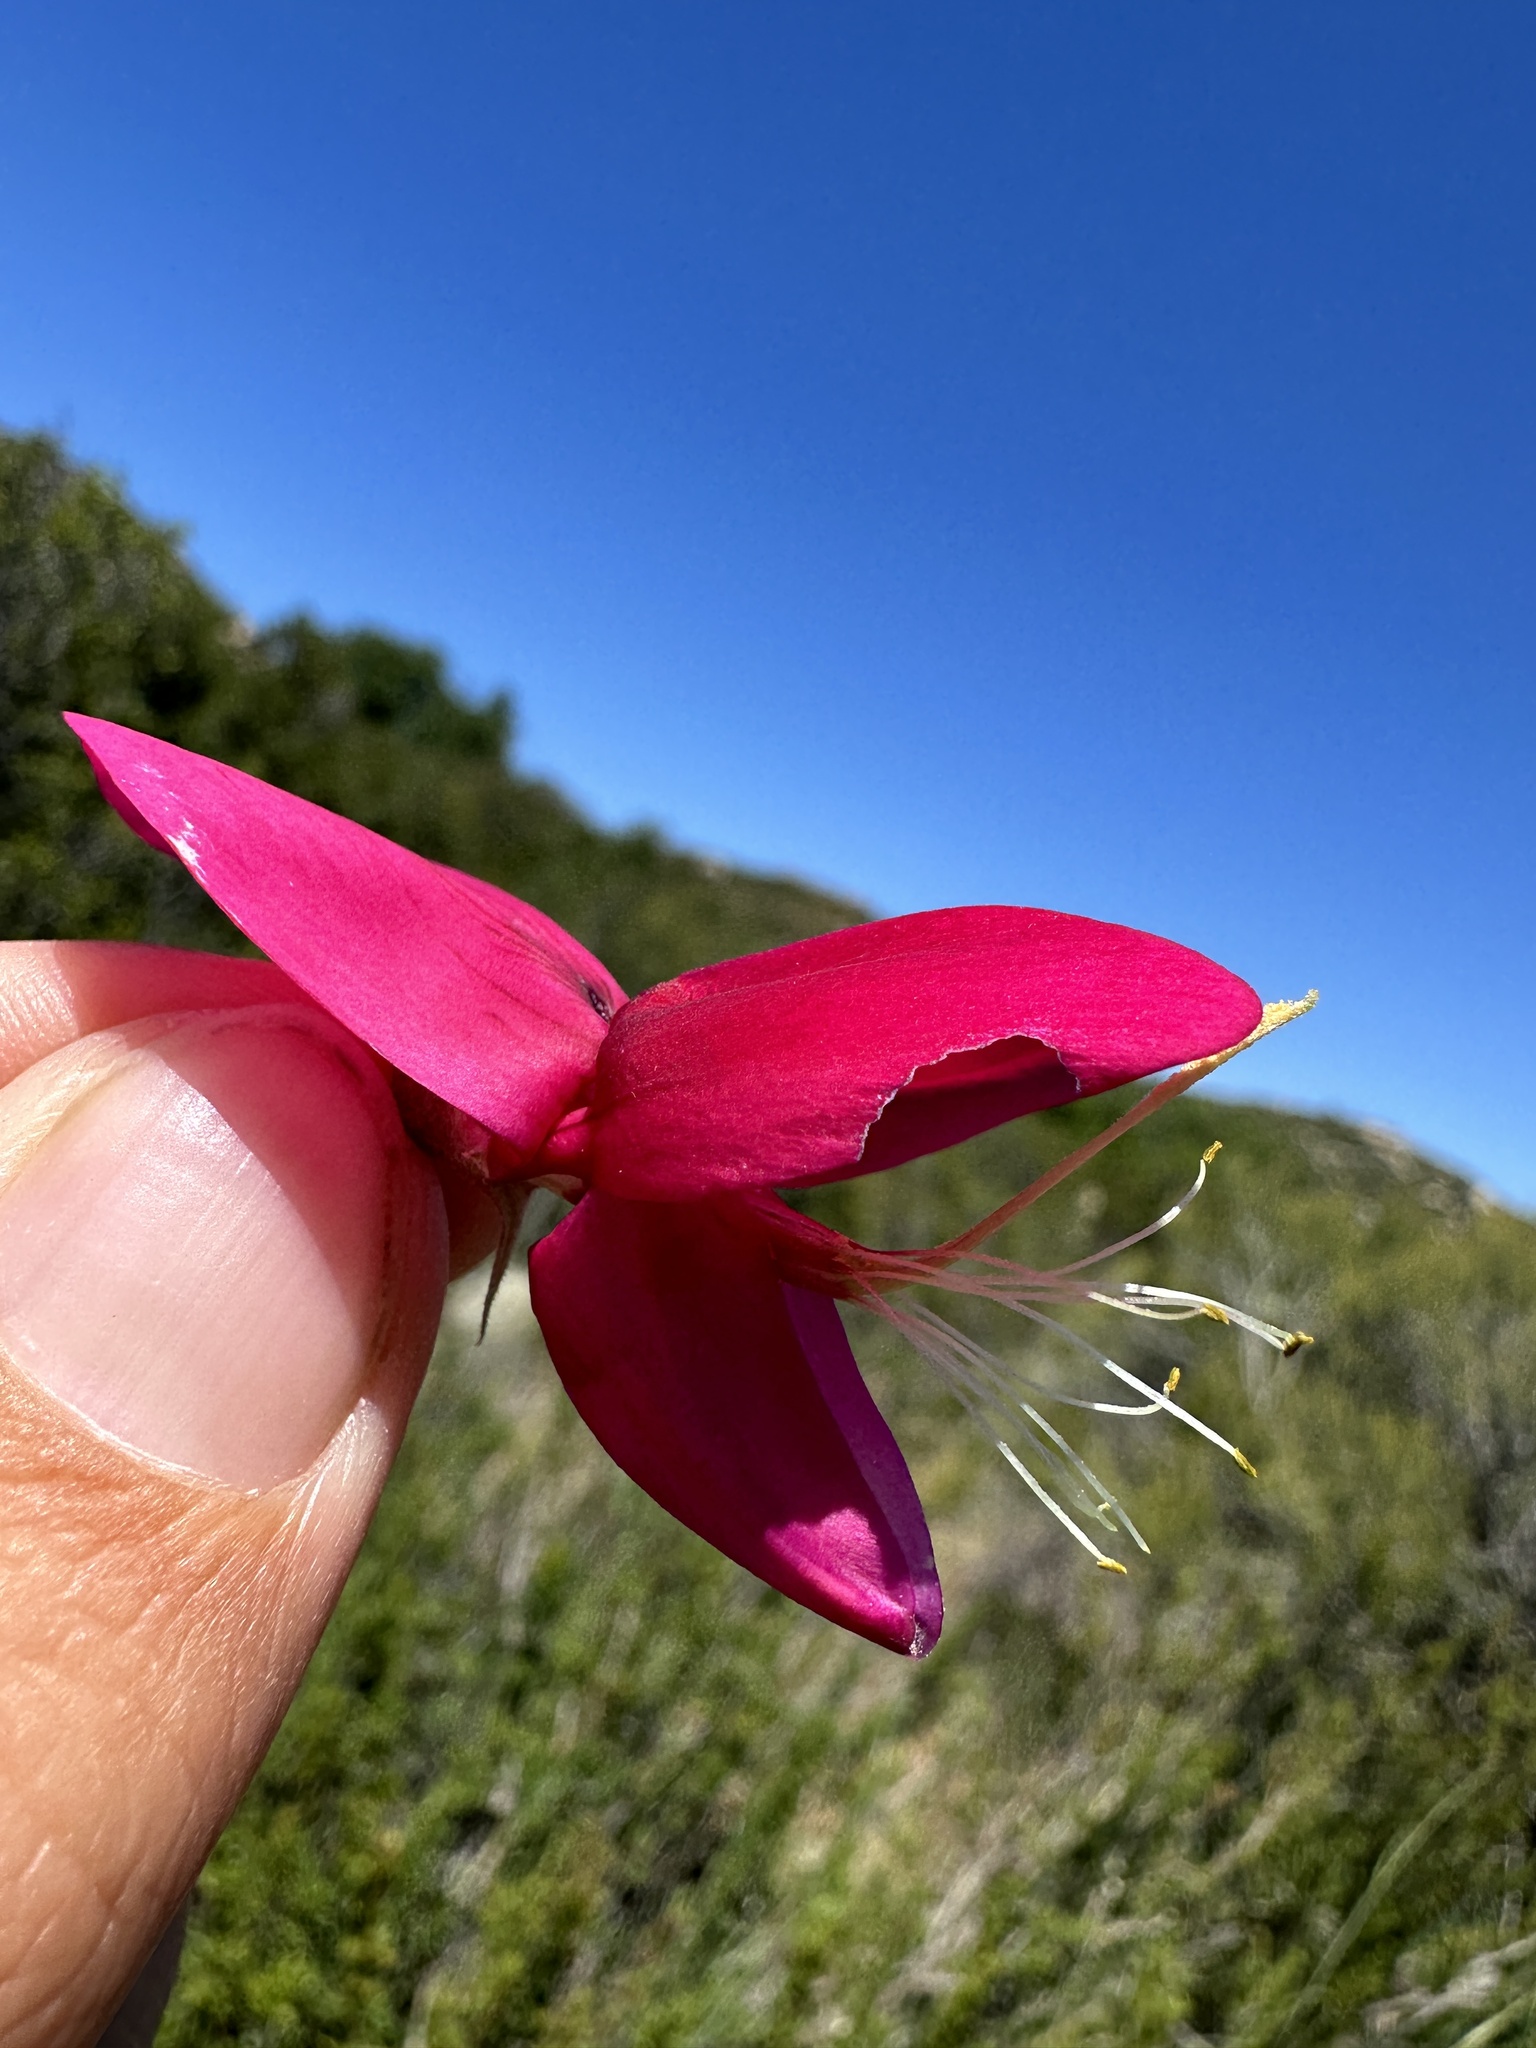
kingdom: Plantae
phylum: Tracheophyta
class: Magnoliopsida
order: Fabales
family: Fabaceae
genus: Lathyrus
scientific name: Lathyrus splendens
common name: Campo-pea
